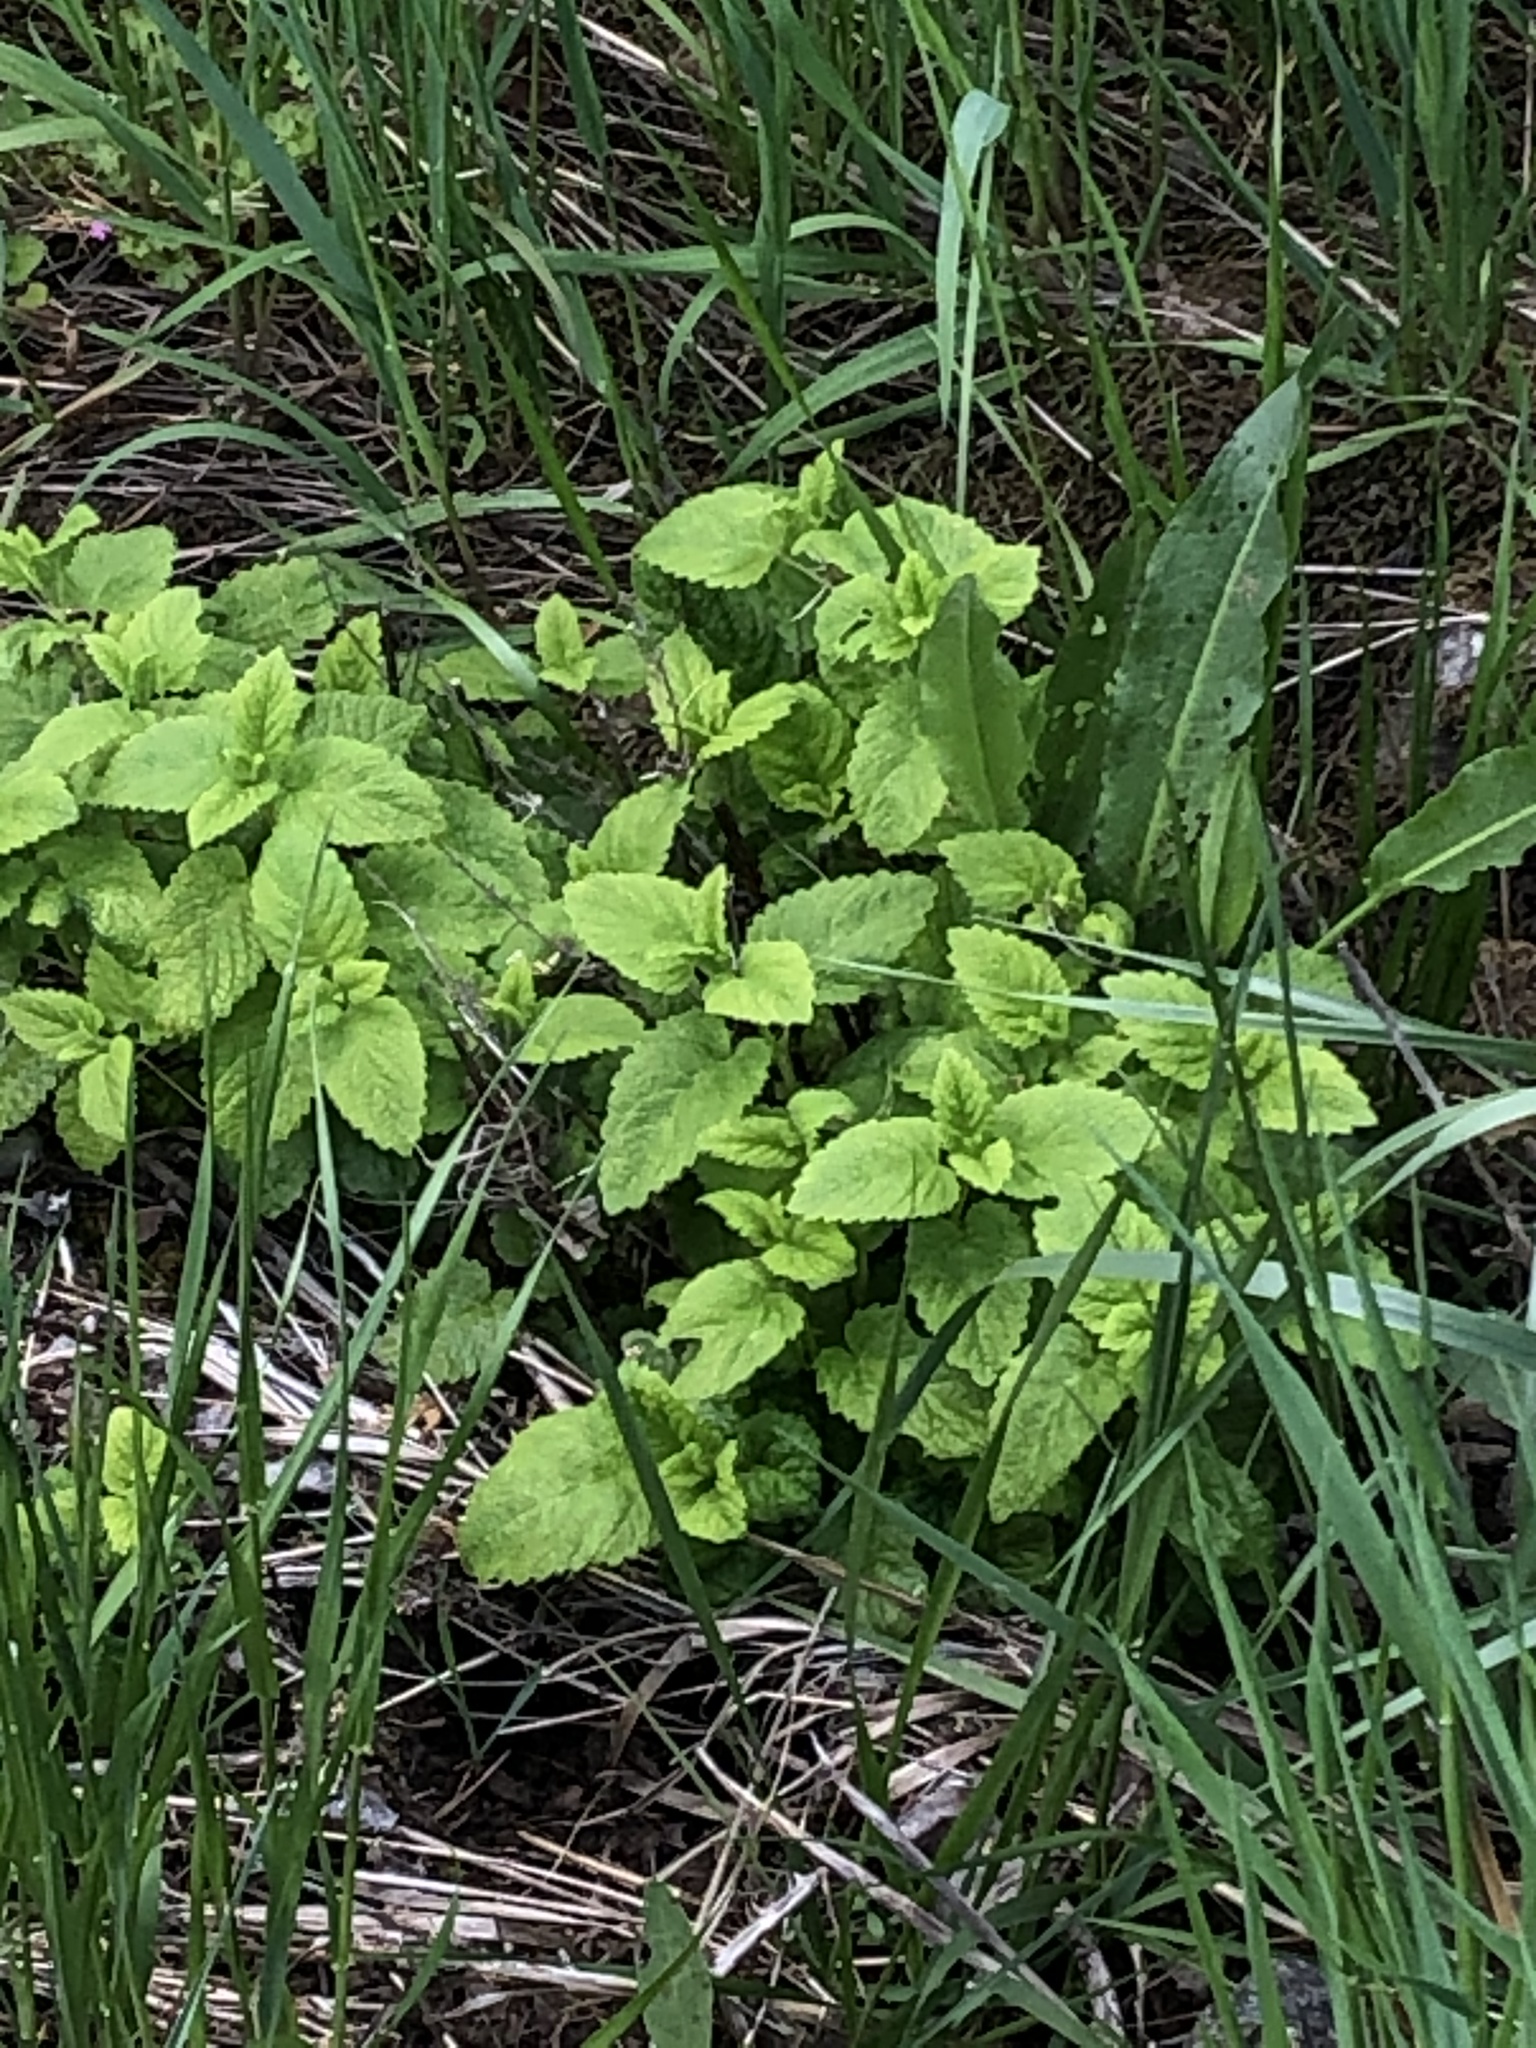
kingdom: Plantae
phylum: Tracheophyta
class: Magnoliopsida
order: Lamiales
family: Lamiaceae
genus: Melissa
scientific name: Melissa officinalis
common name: Balm
